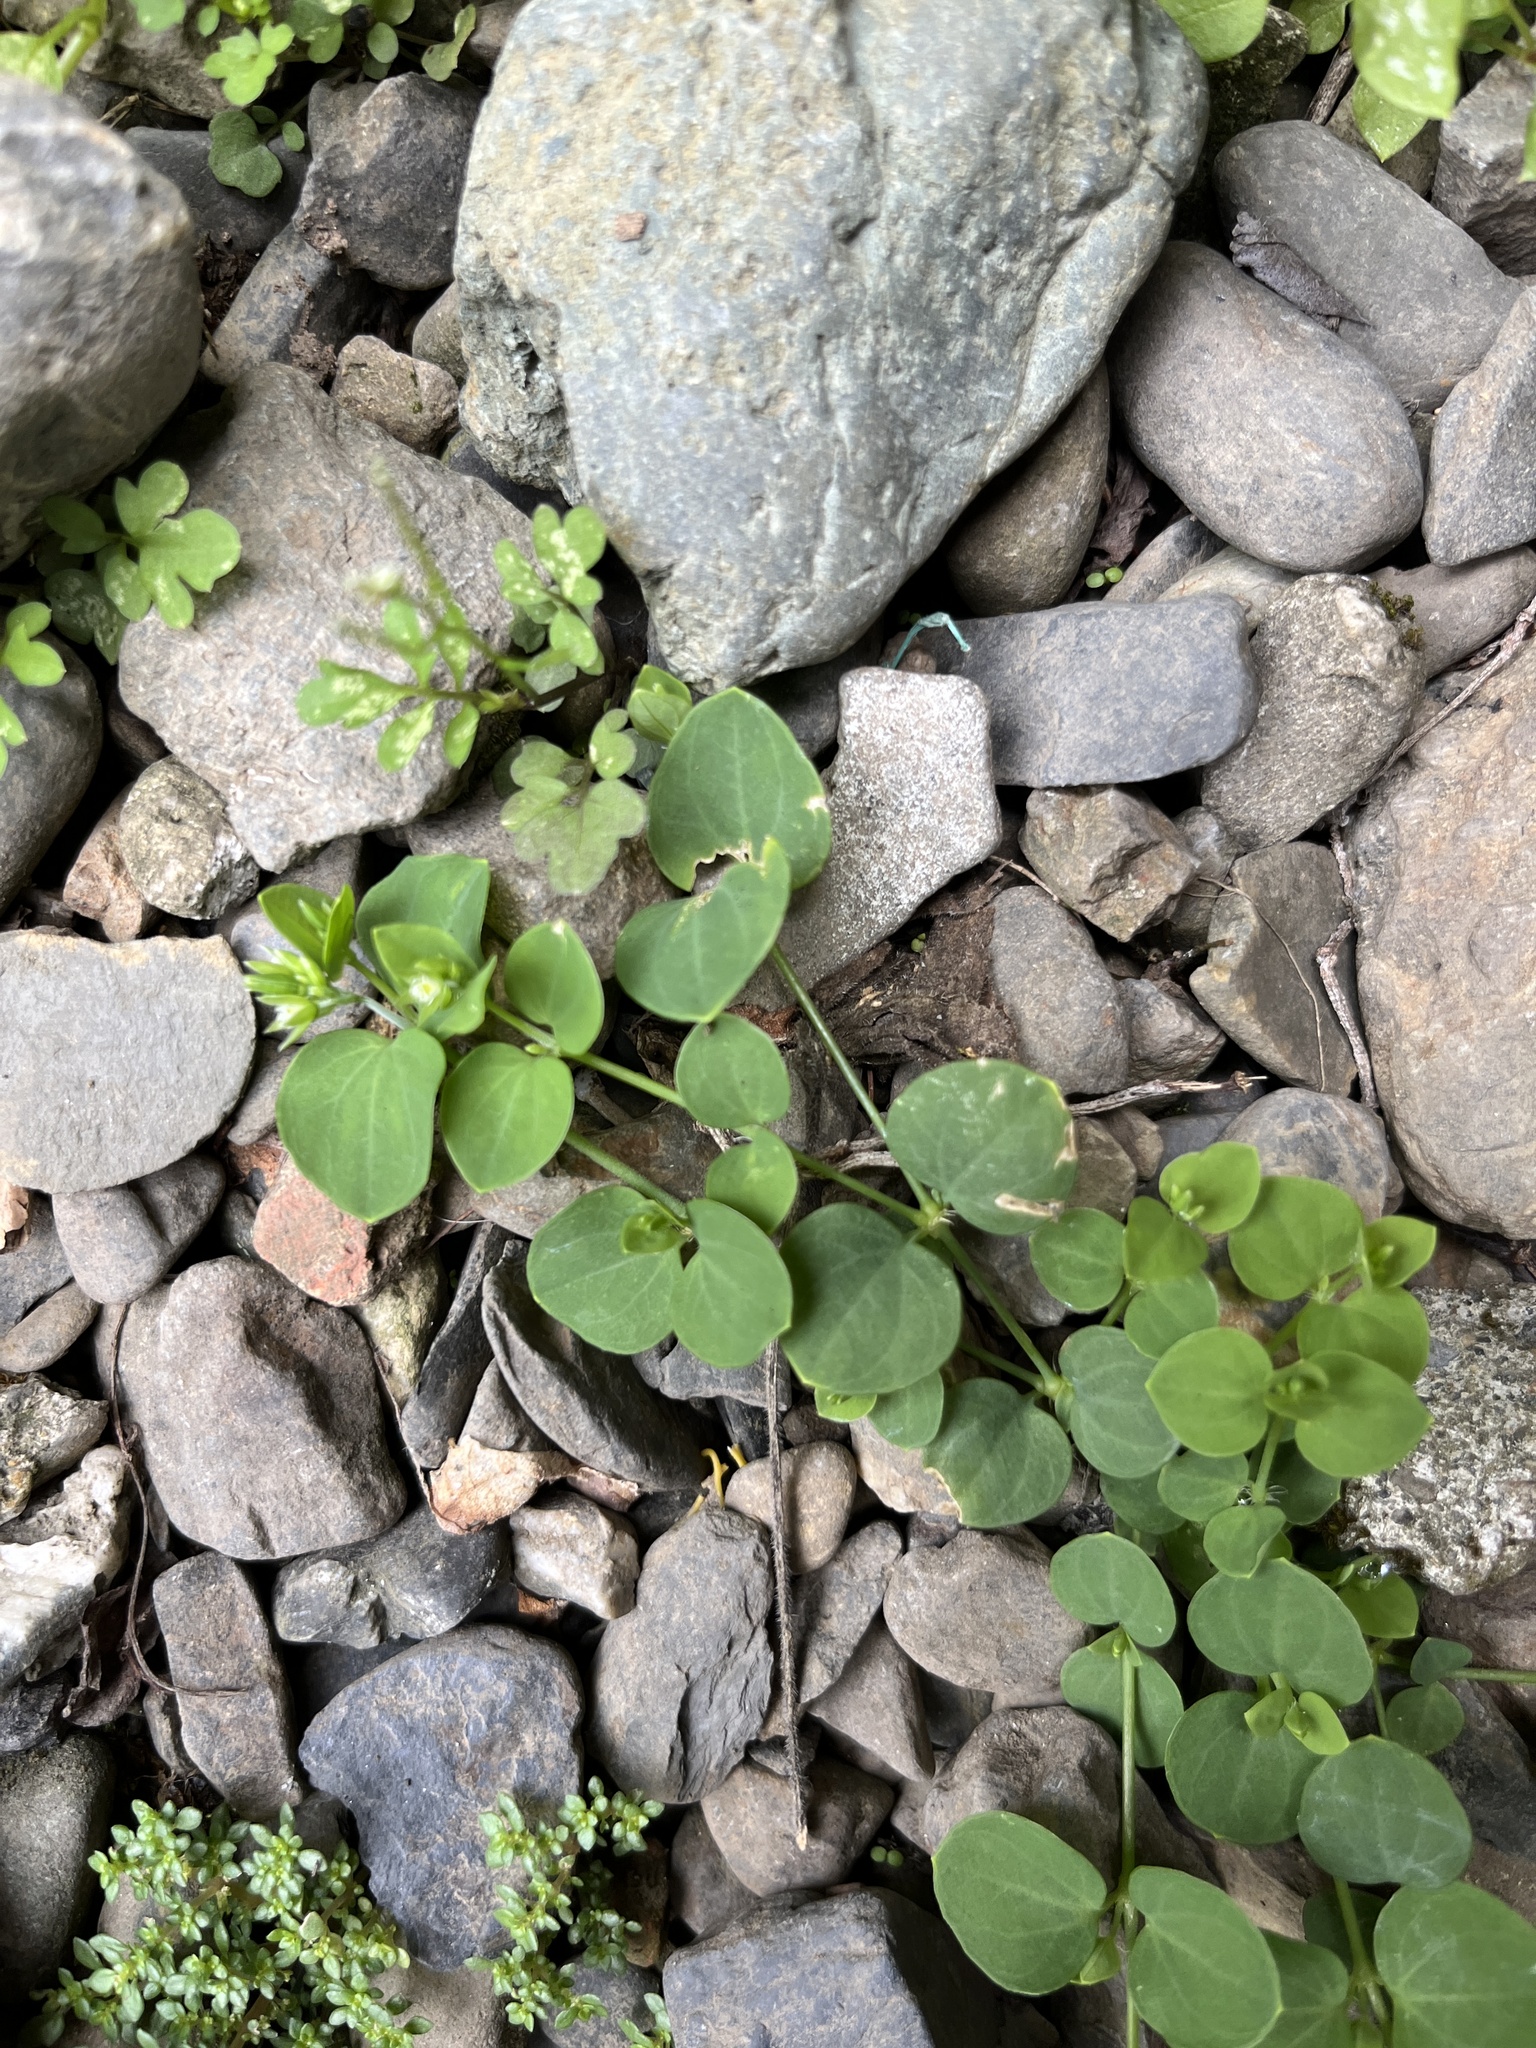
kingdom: Plantae
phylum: Tracheophyta
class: Magnoliopsida
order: Caryophyllales
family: Caryophyllaceae
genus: Drymaria
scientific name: Drymaria cordata
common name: Whitesnow
